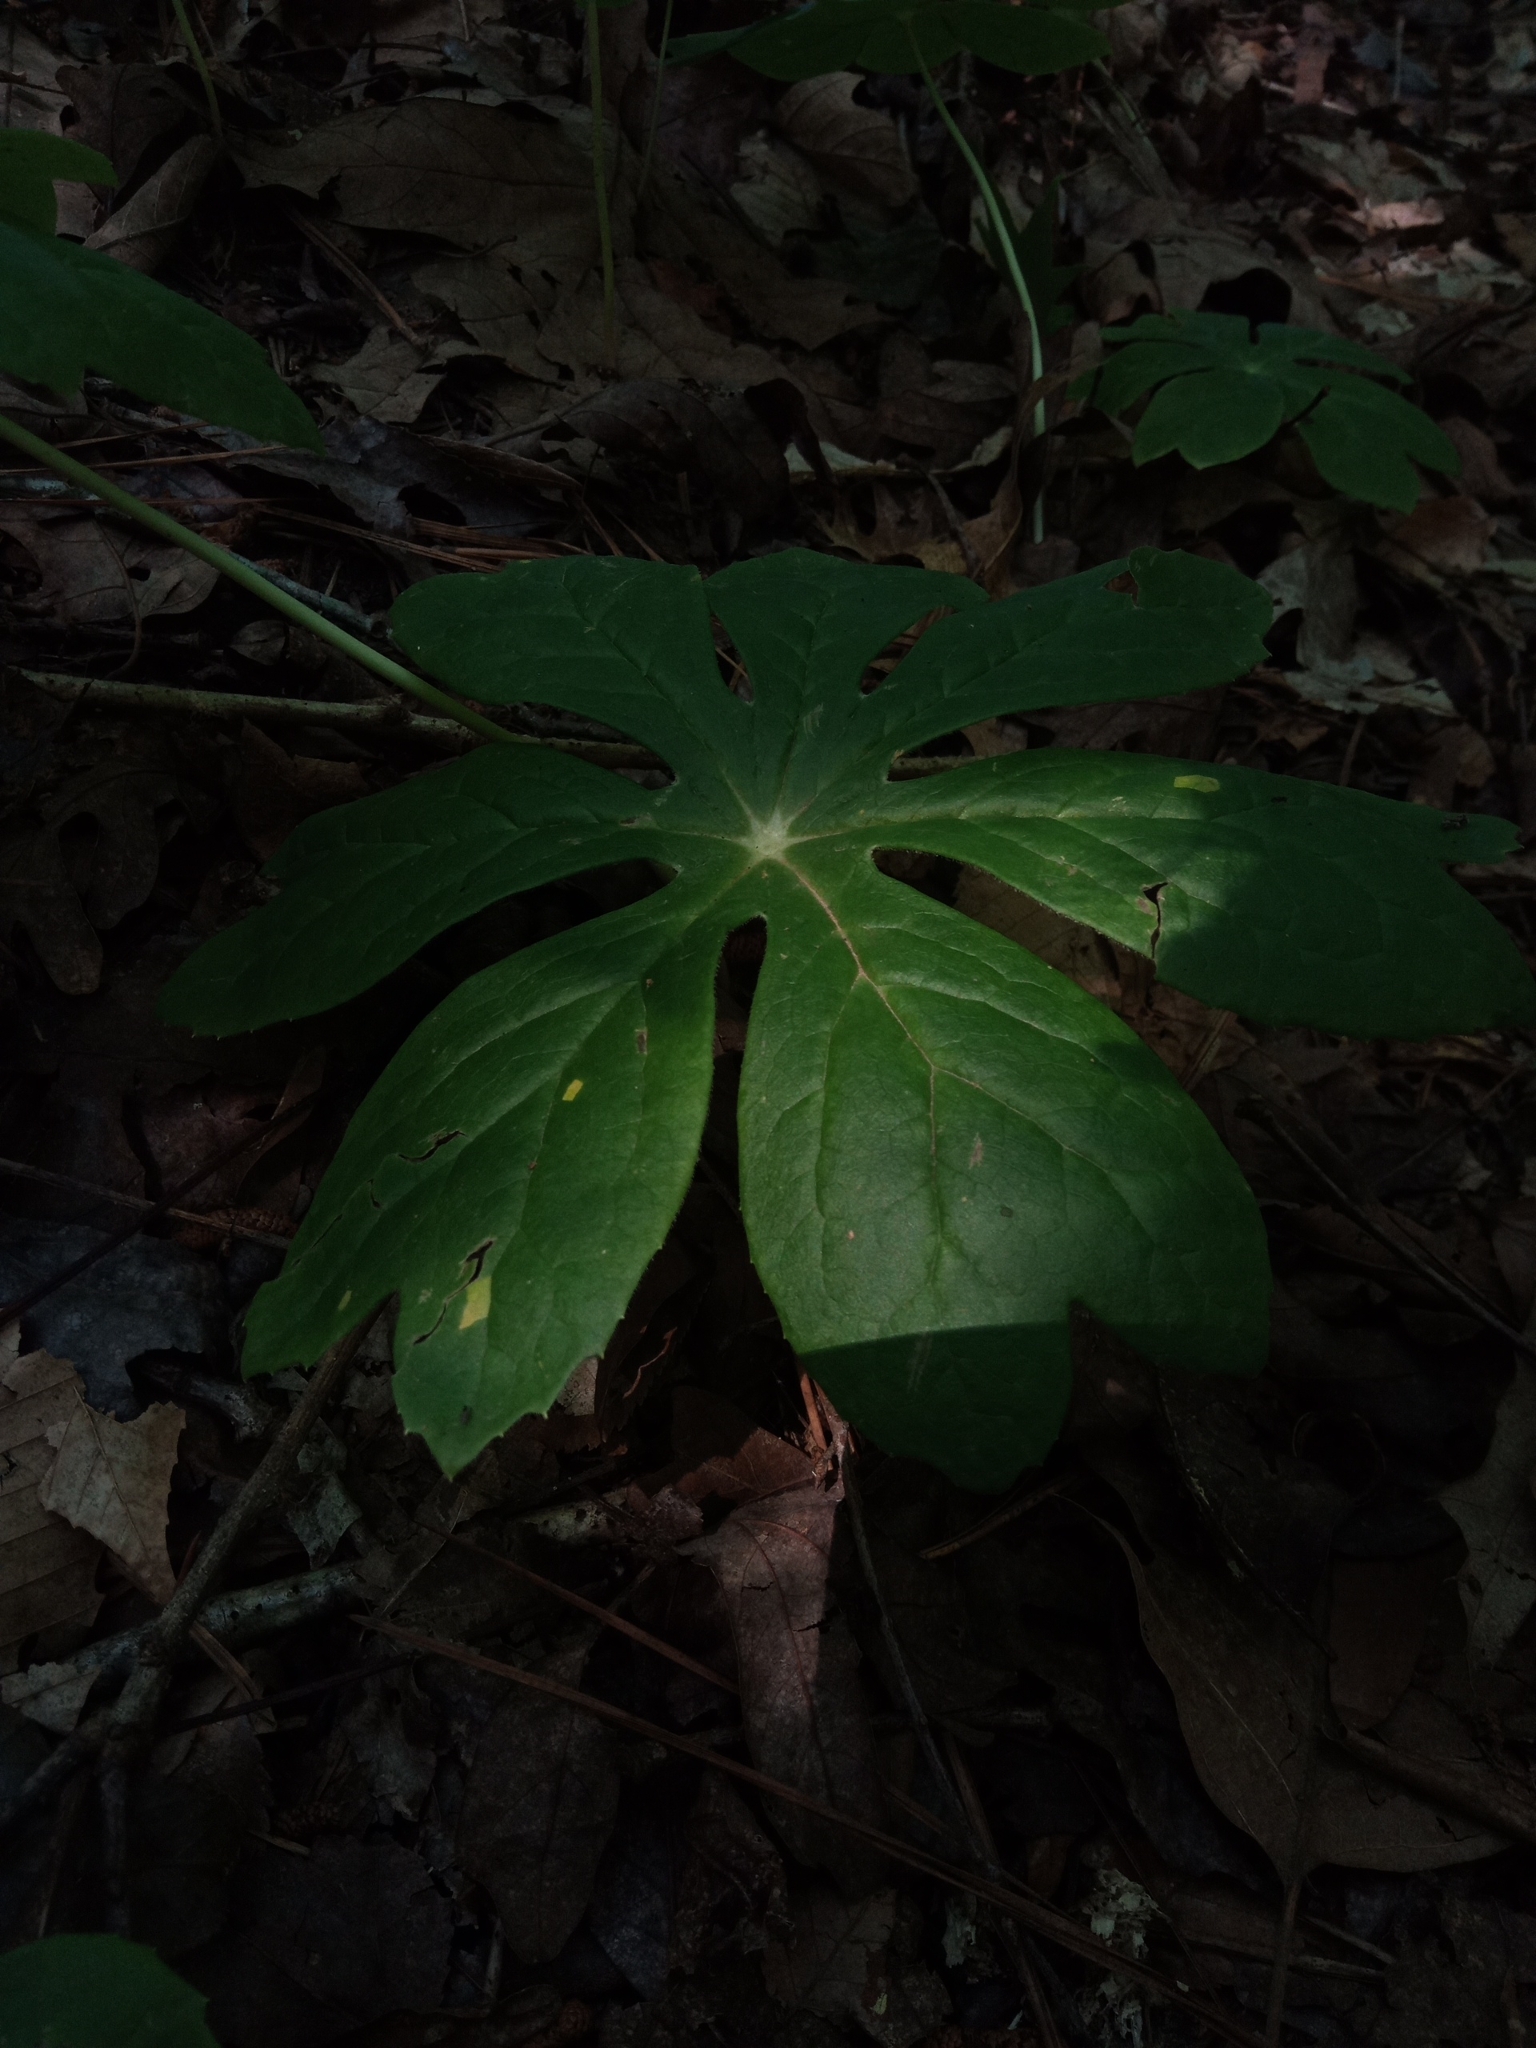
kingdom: Plantae
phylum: Tracheophyta
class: Magnoliopsida
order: Ranunculales
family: Berberidaceae
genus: Podophyllum
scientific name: Podophyllum peltatum
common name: Wild mandrake
